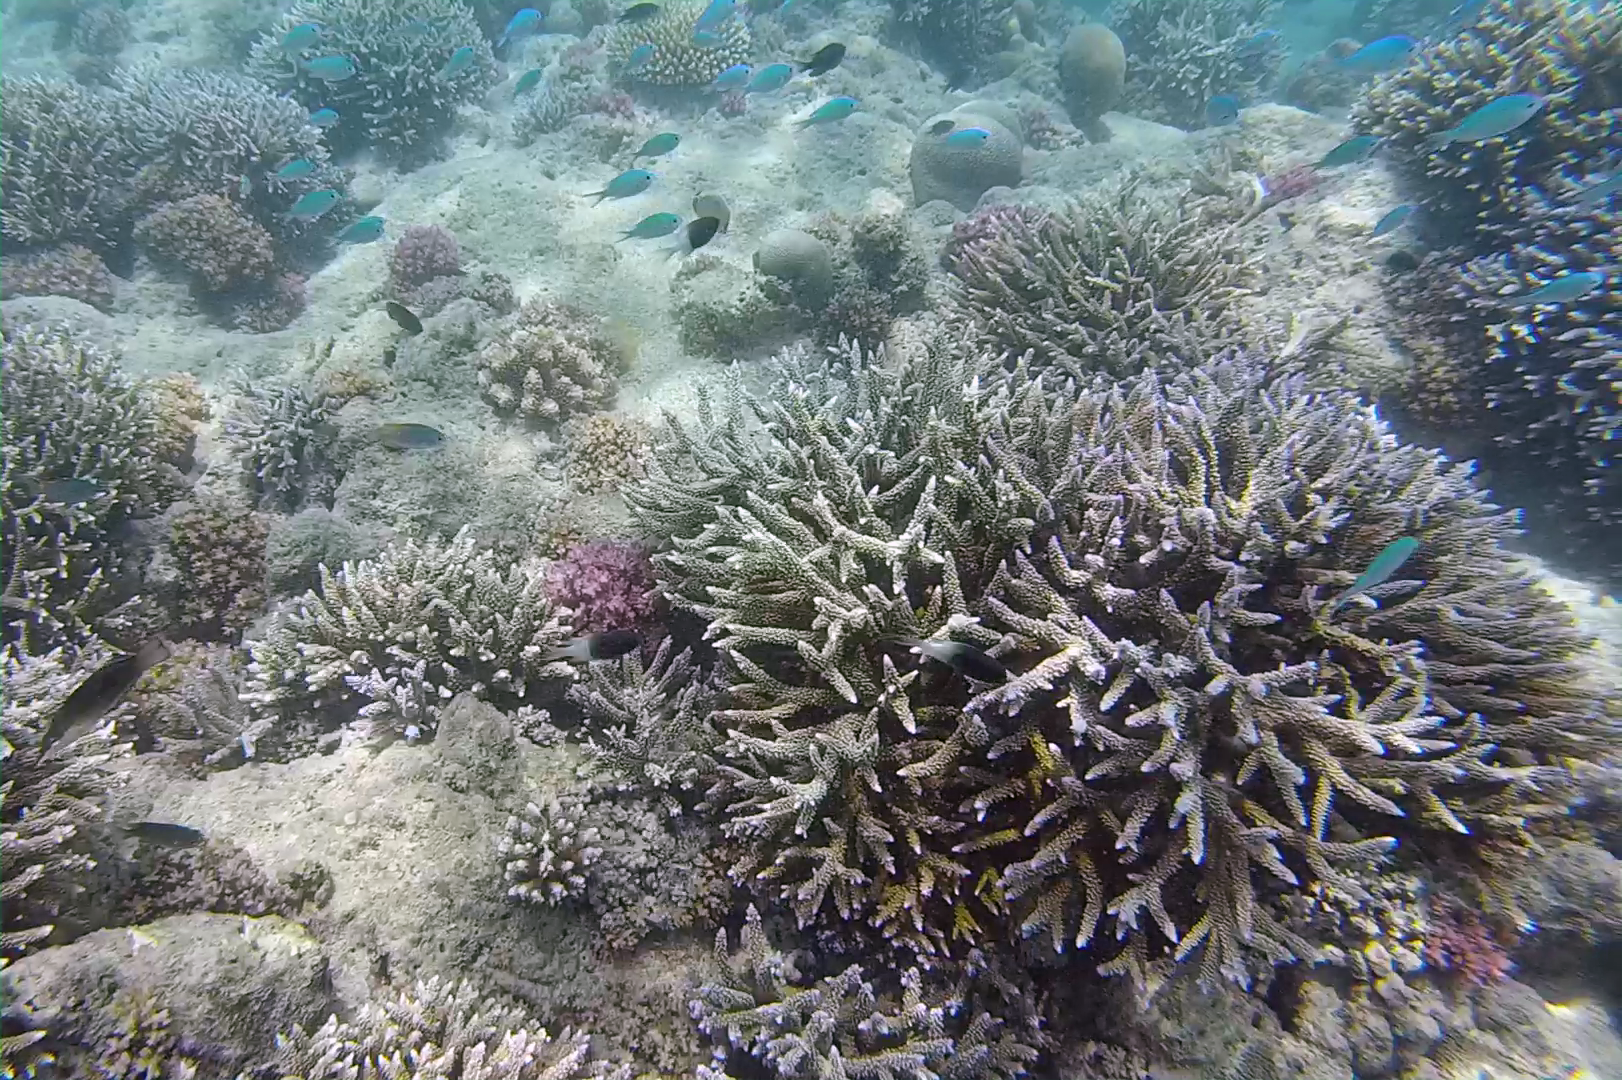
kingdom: Animalia
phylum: Chordata
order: Perciformes
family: Pomacentridae
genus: Chromis
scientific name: Chromis fieldi
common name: Chocolatedip chromis
